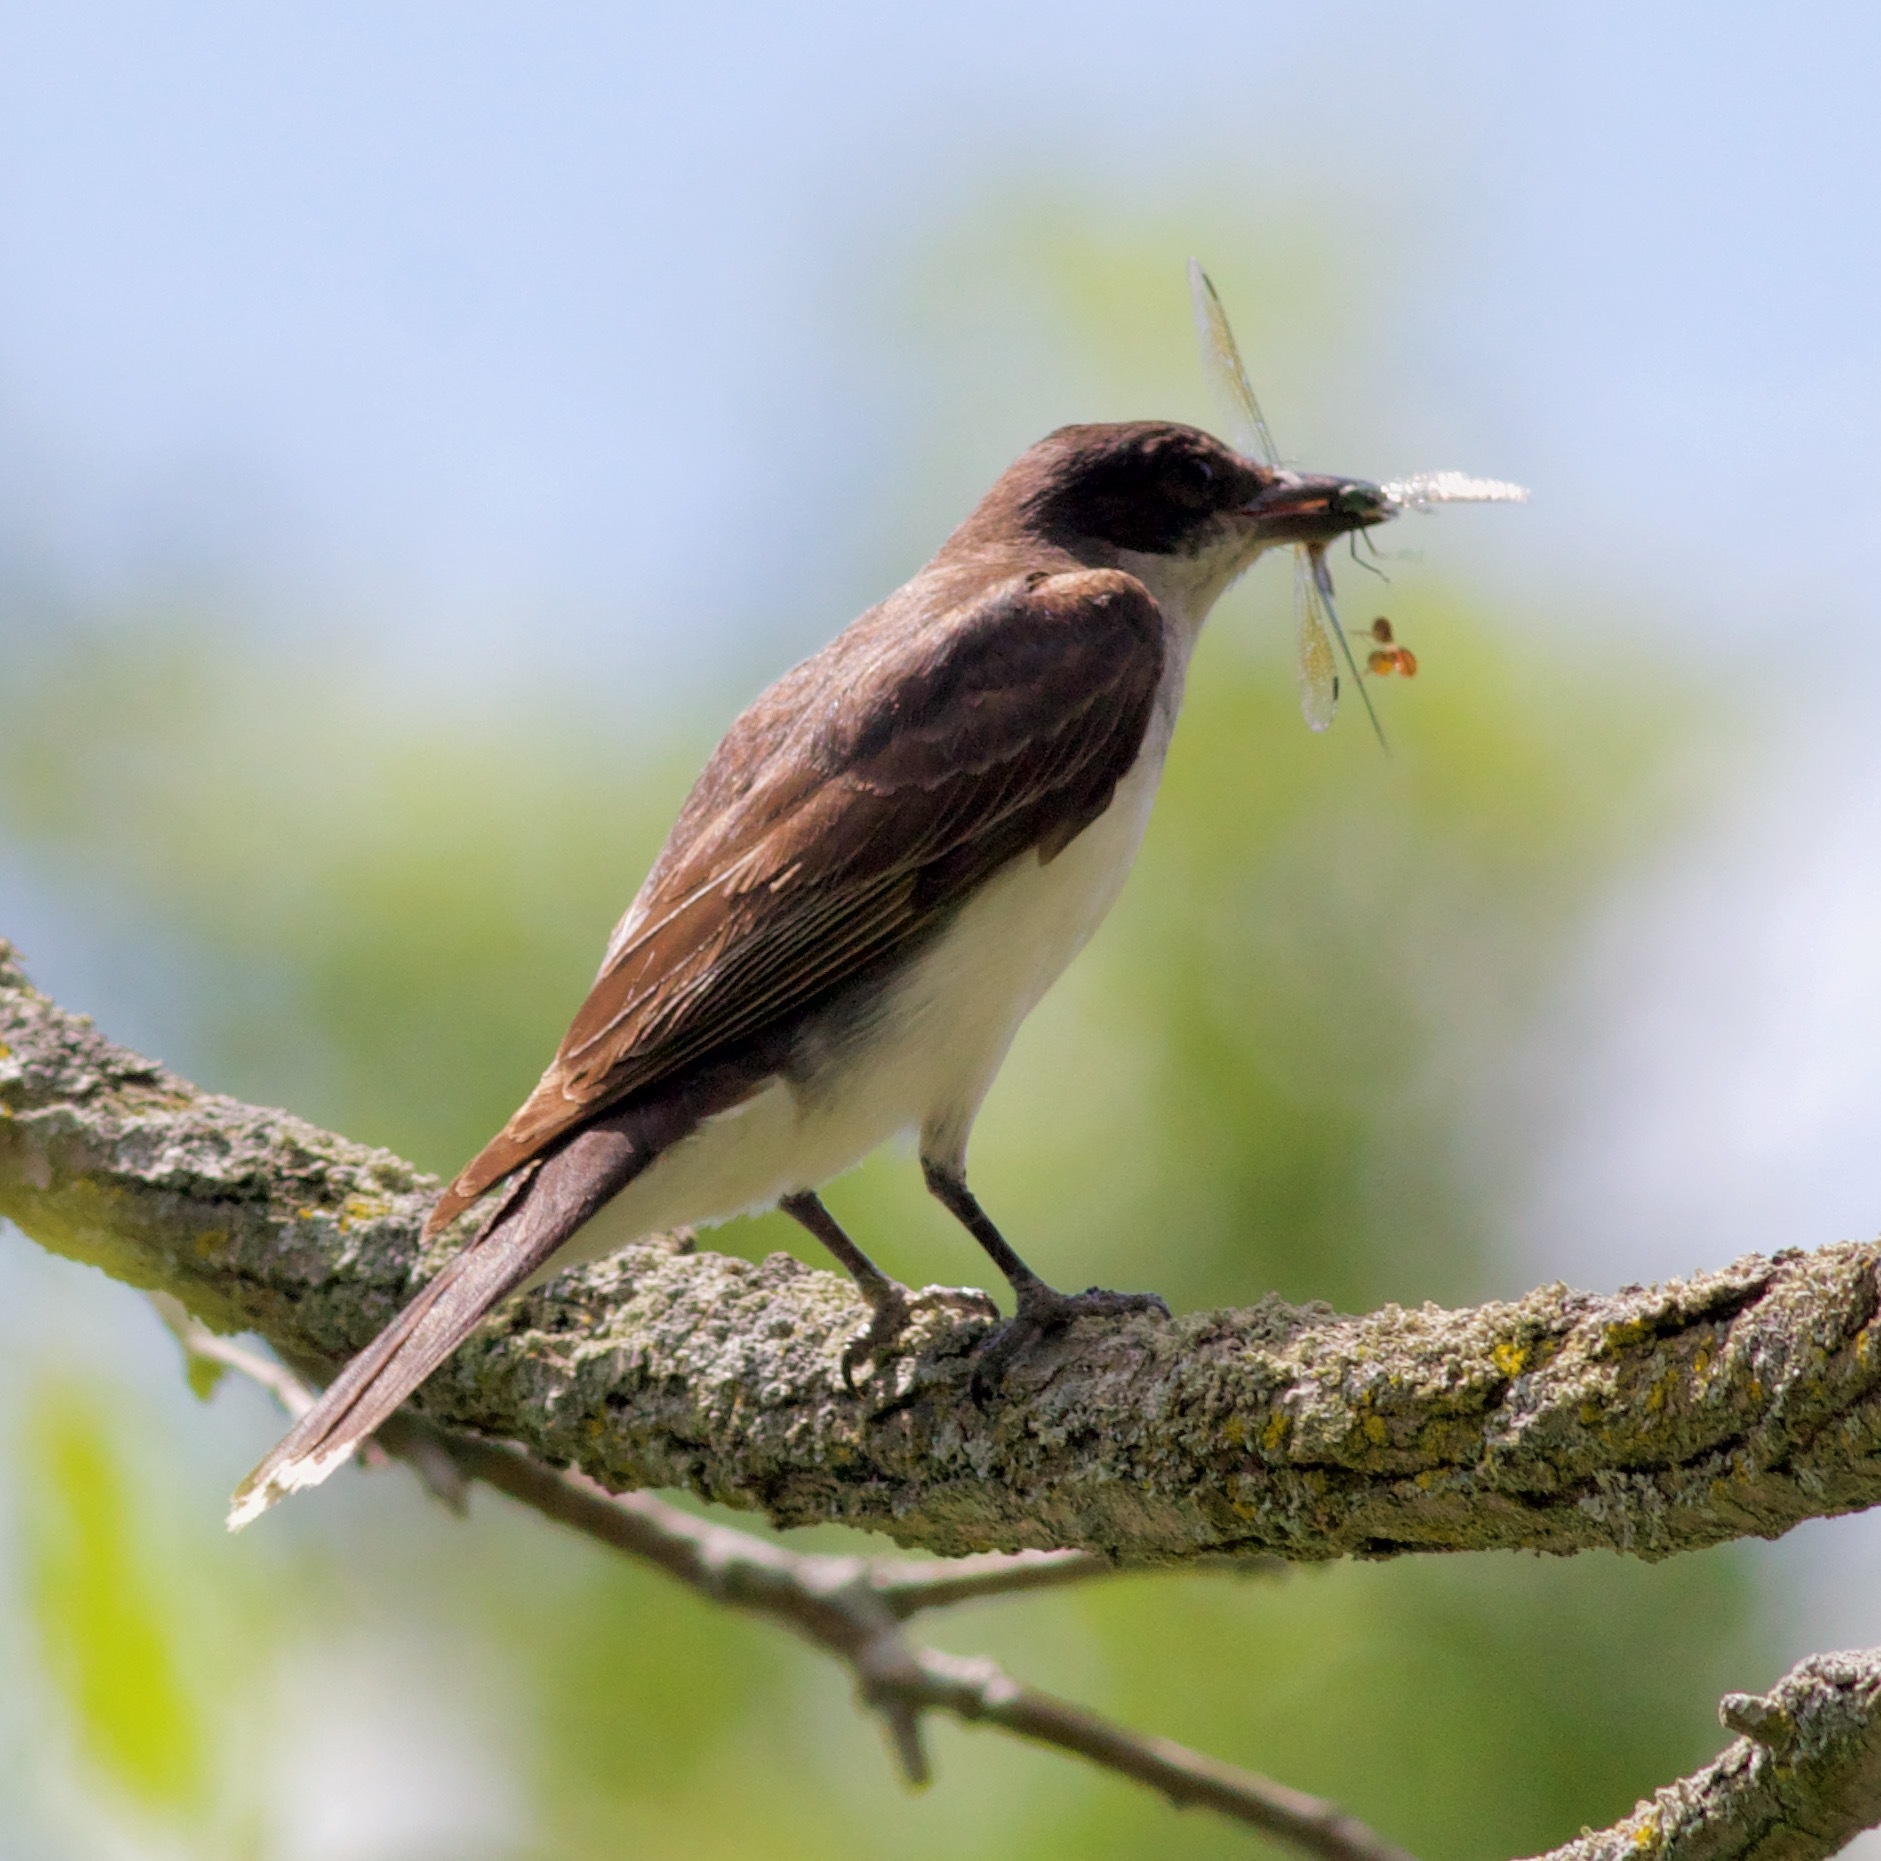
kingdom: Animalia
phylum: Chordata
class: Aves
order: Passeriformes
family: Tyrannidae
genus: Tyrannus
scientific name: Tyrannus tyrannus
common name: Eastern kingbird
